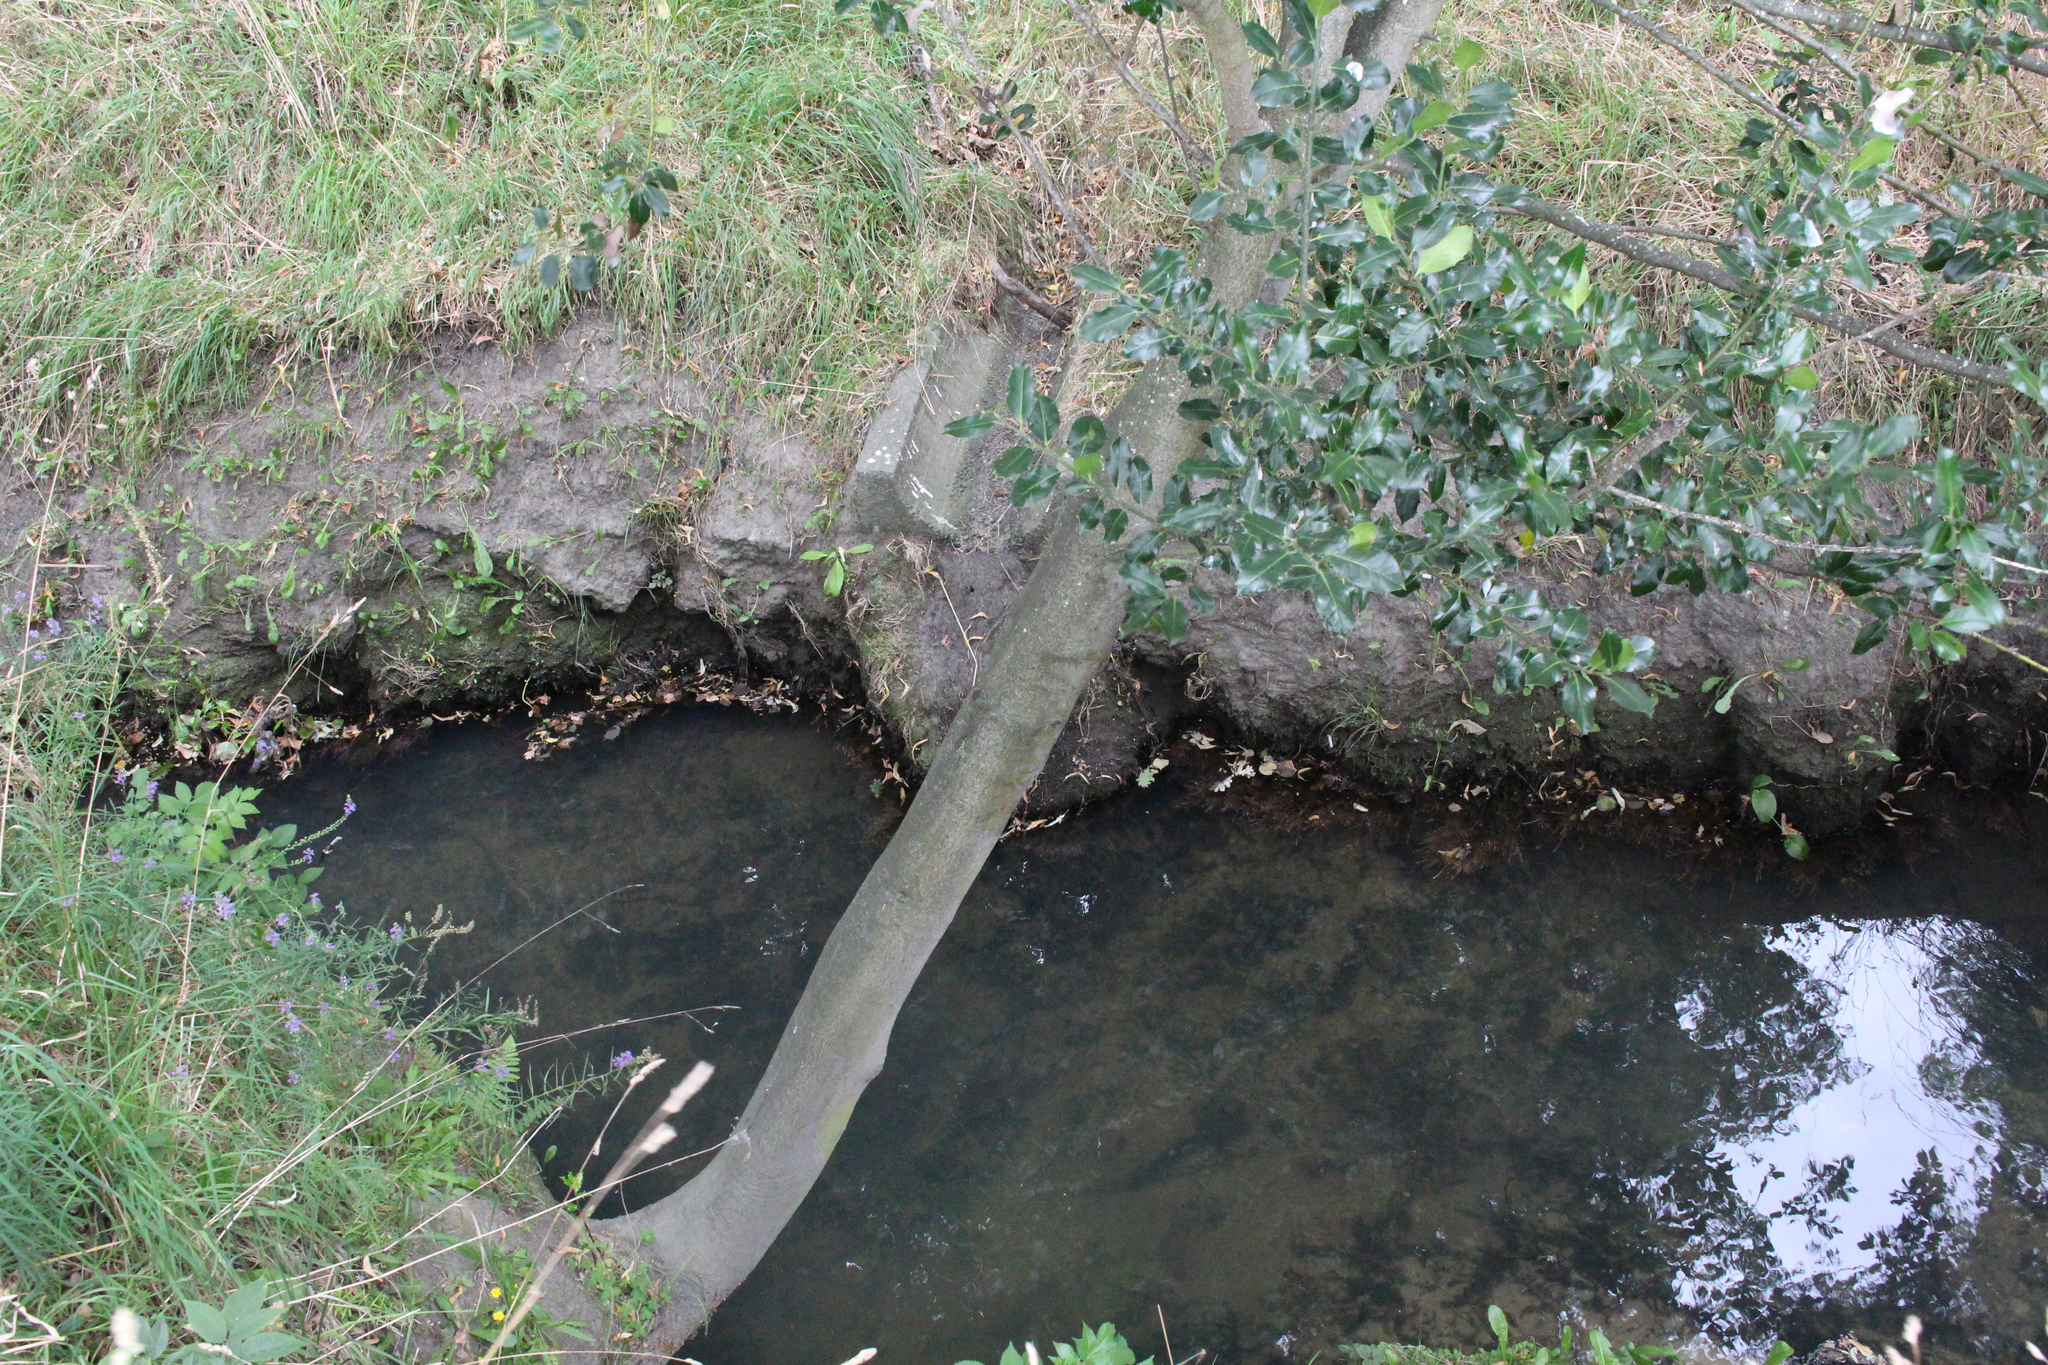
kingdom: Plantae
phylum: Tracheophyta
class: Magnoliopsida
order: Aquifoliales
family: Aquifoliaceae
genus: Ilex
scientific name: Ilex aquifolium
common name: English holly
